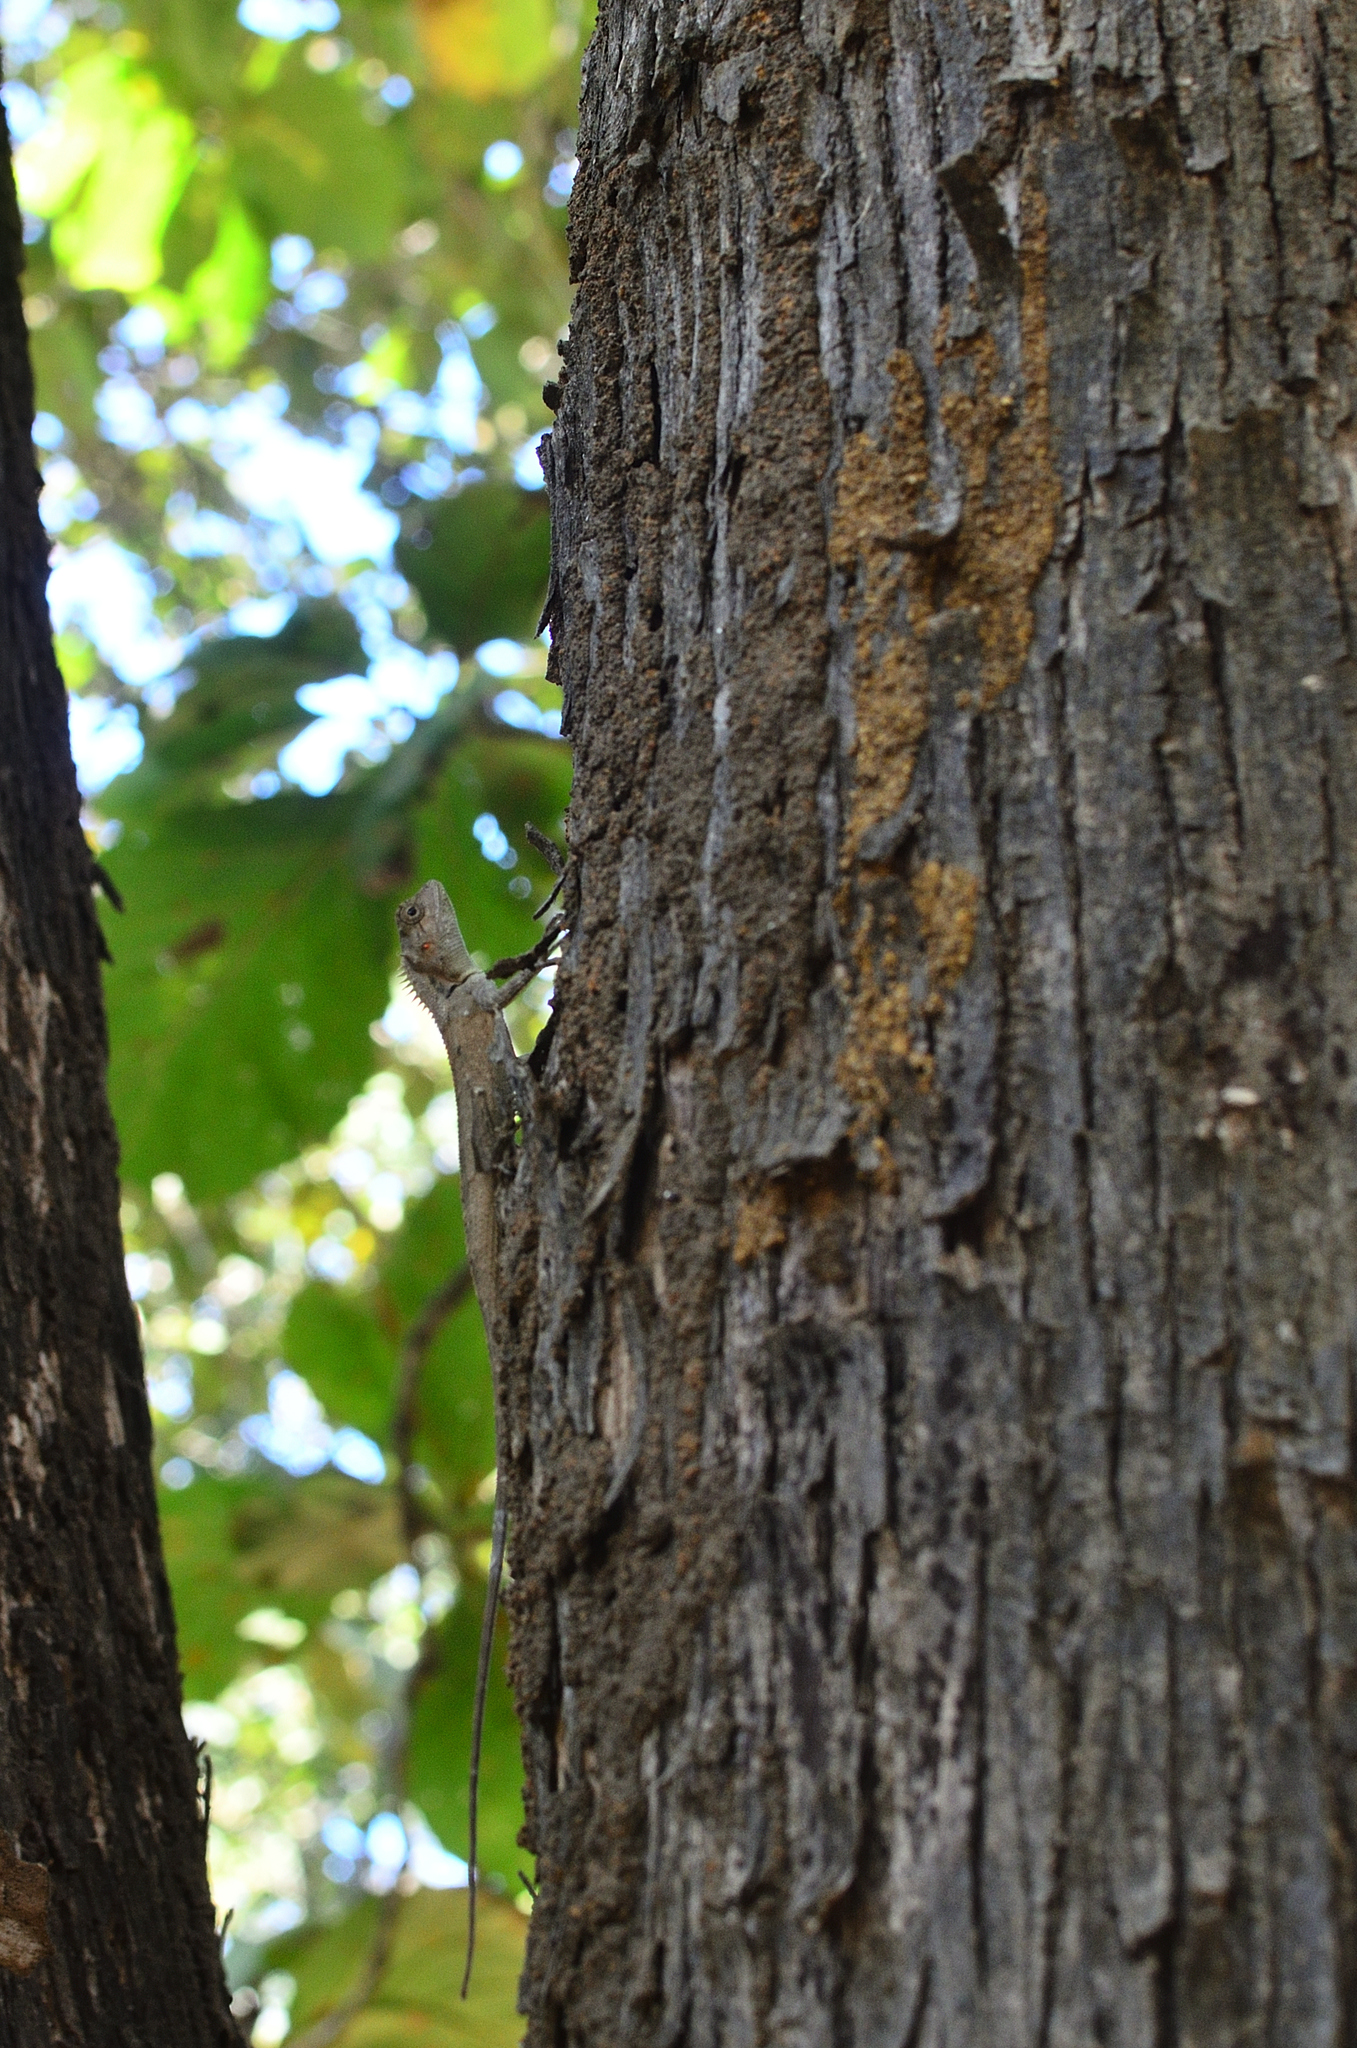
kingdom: Animalia
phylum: Chordata
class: Squamata
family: Agamidae
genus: Monilesaurus
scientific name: Monilesaurus rouxii
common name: Roux's forest lizard
